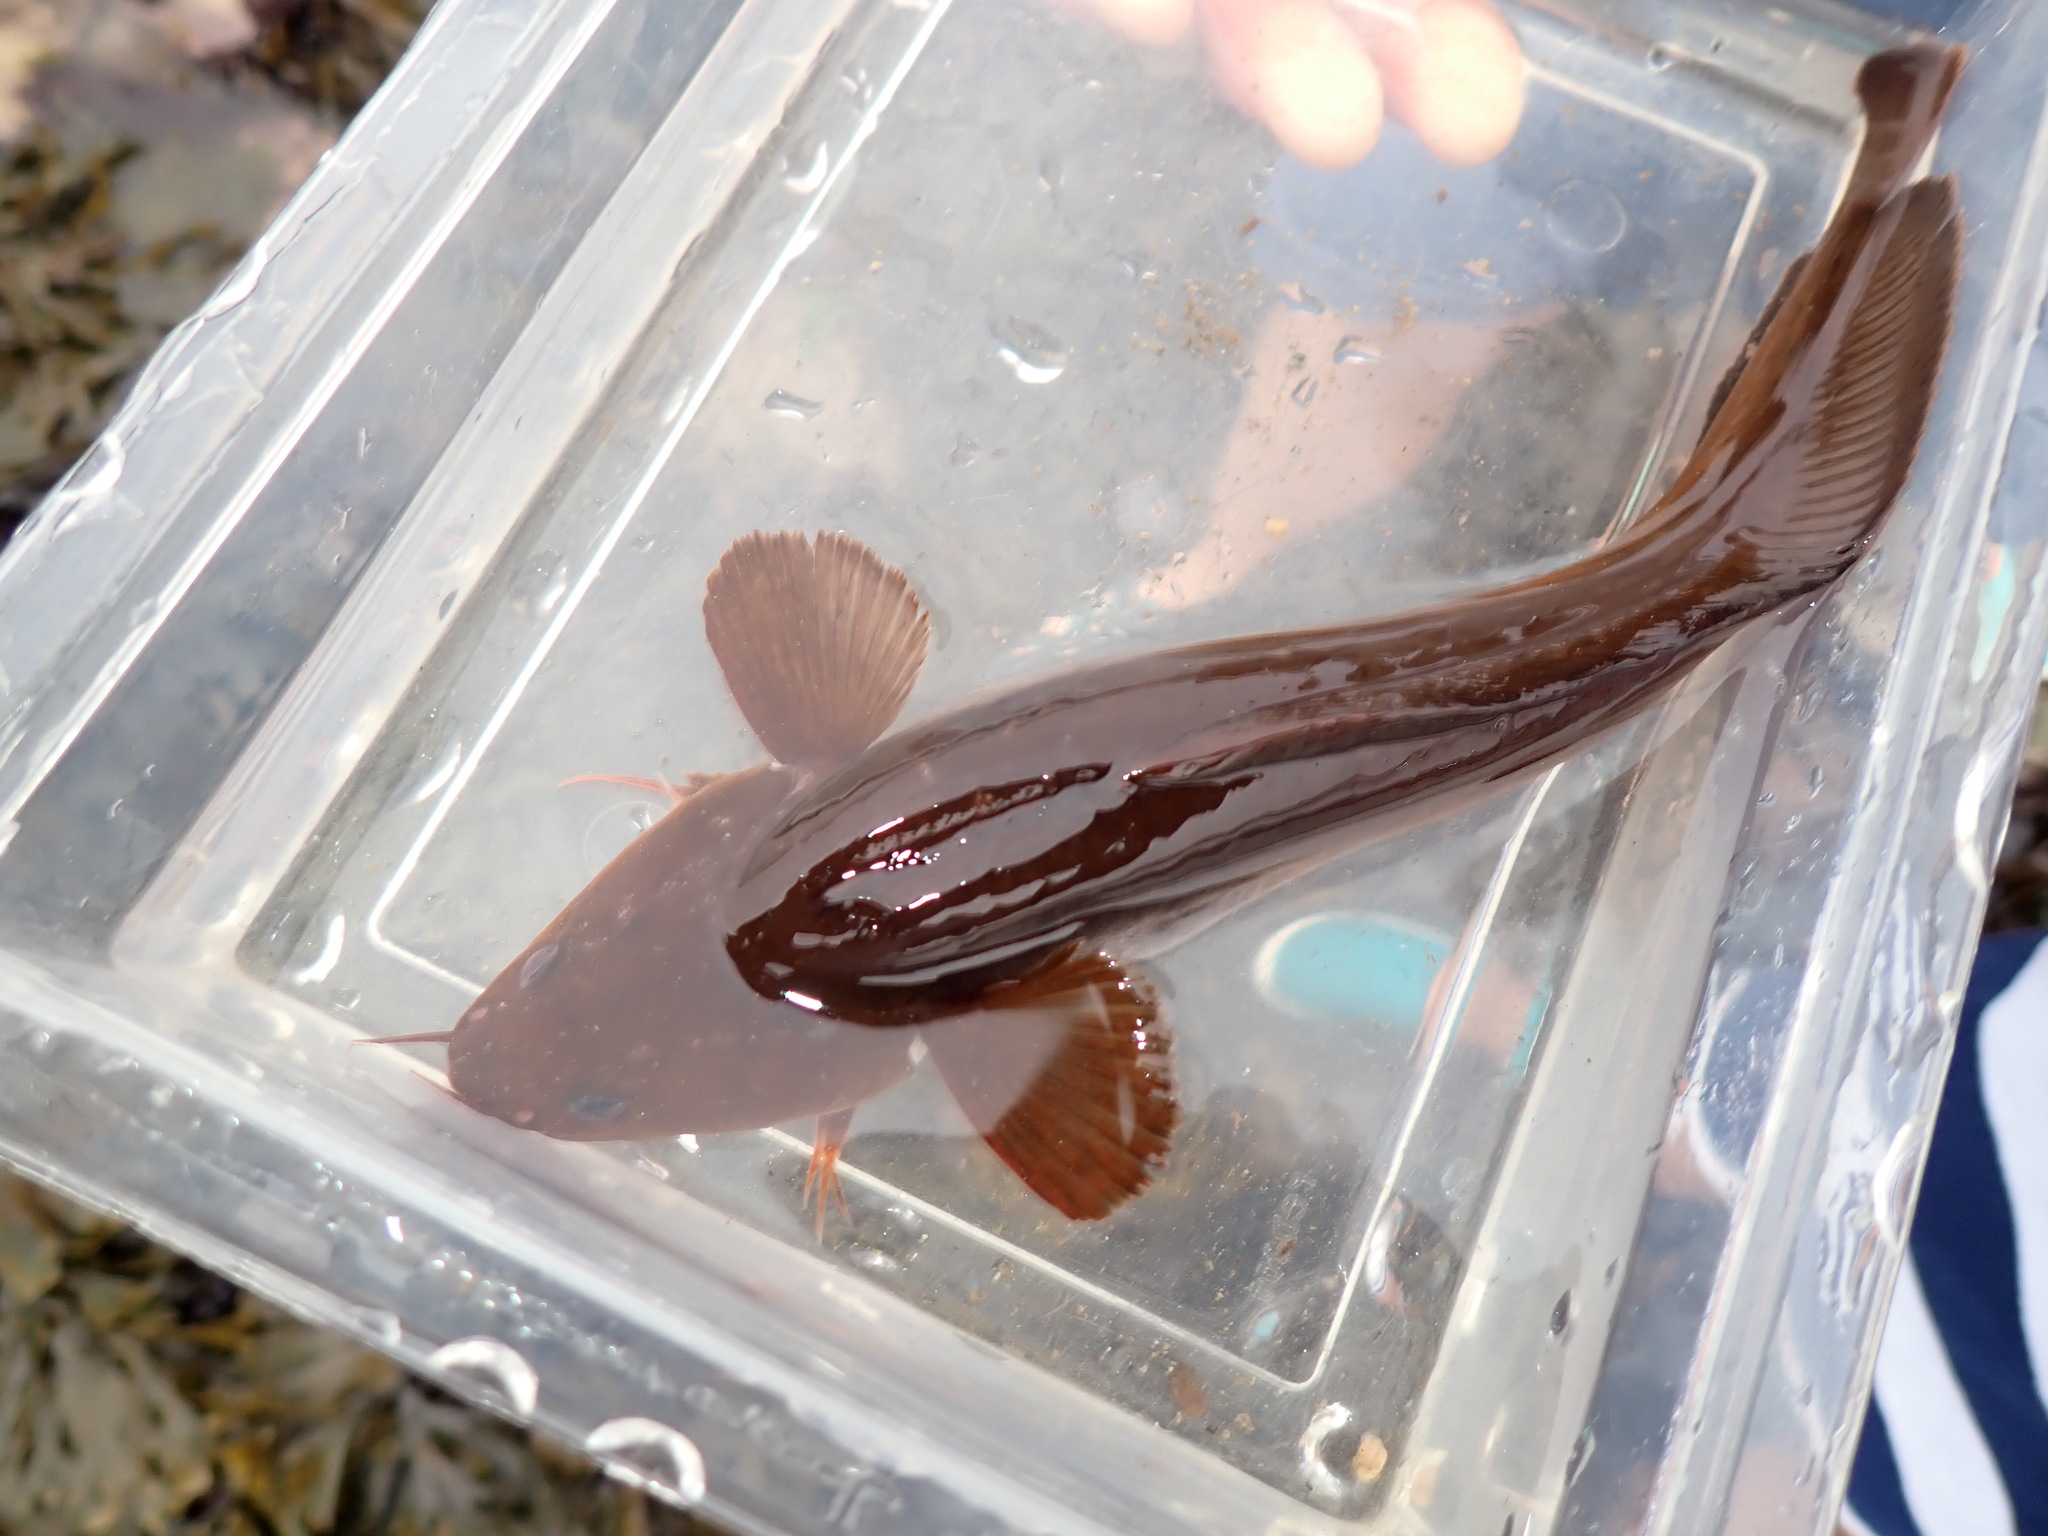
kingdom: Animalia
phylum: Chordata
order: Gadiformes
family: Lotidae
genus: Gaidropsarus
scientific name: Gaidropsarus mediterraneus
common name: Shore rockling
